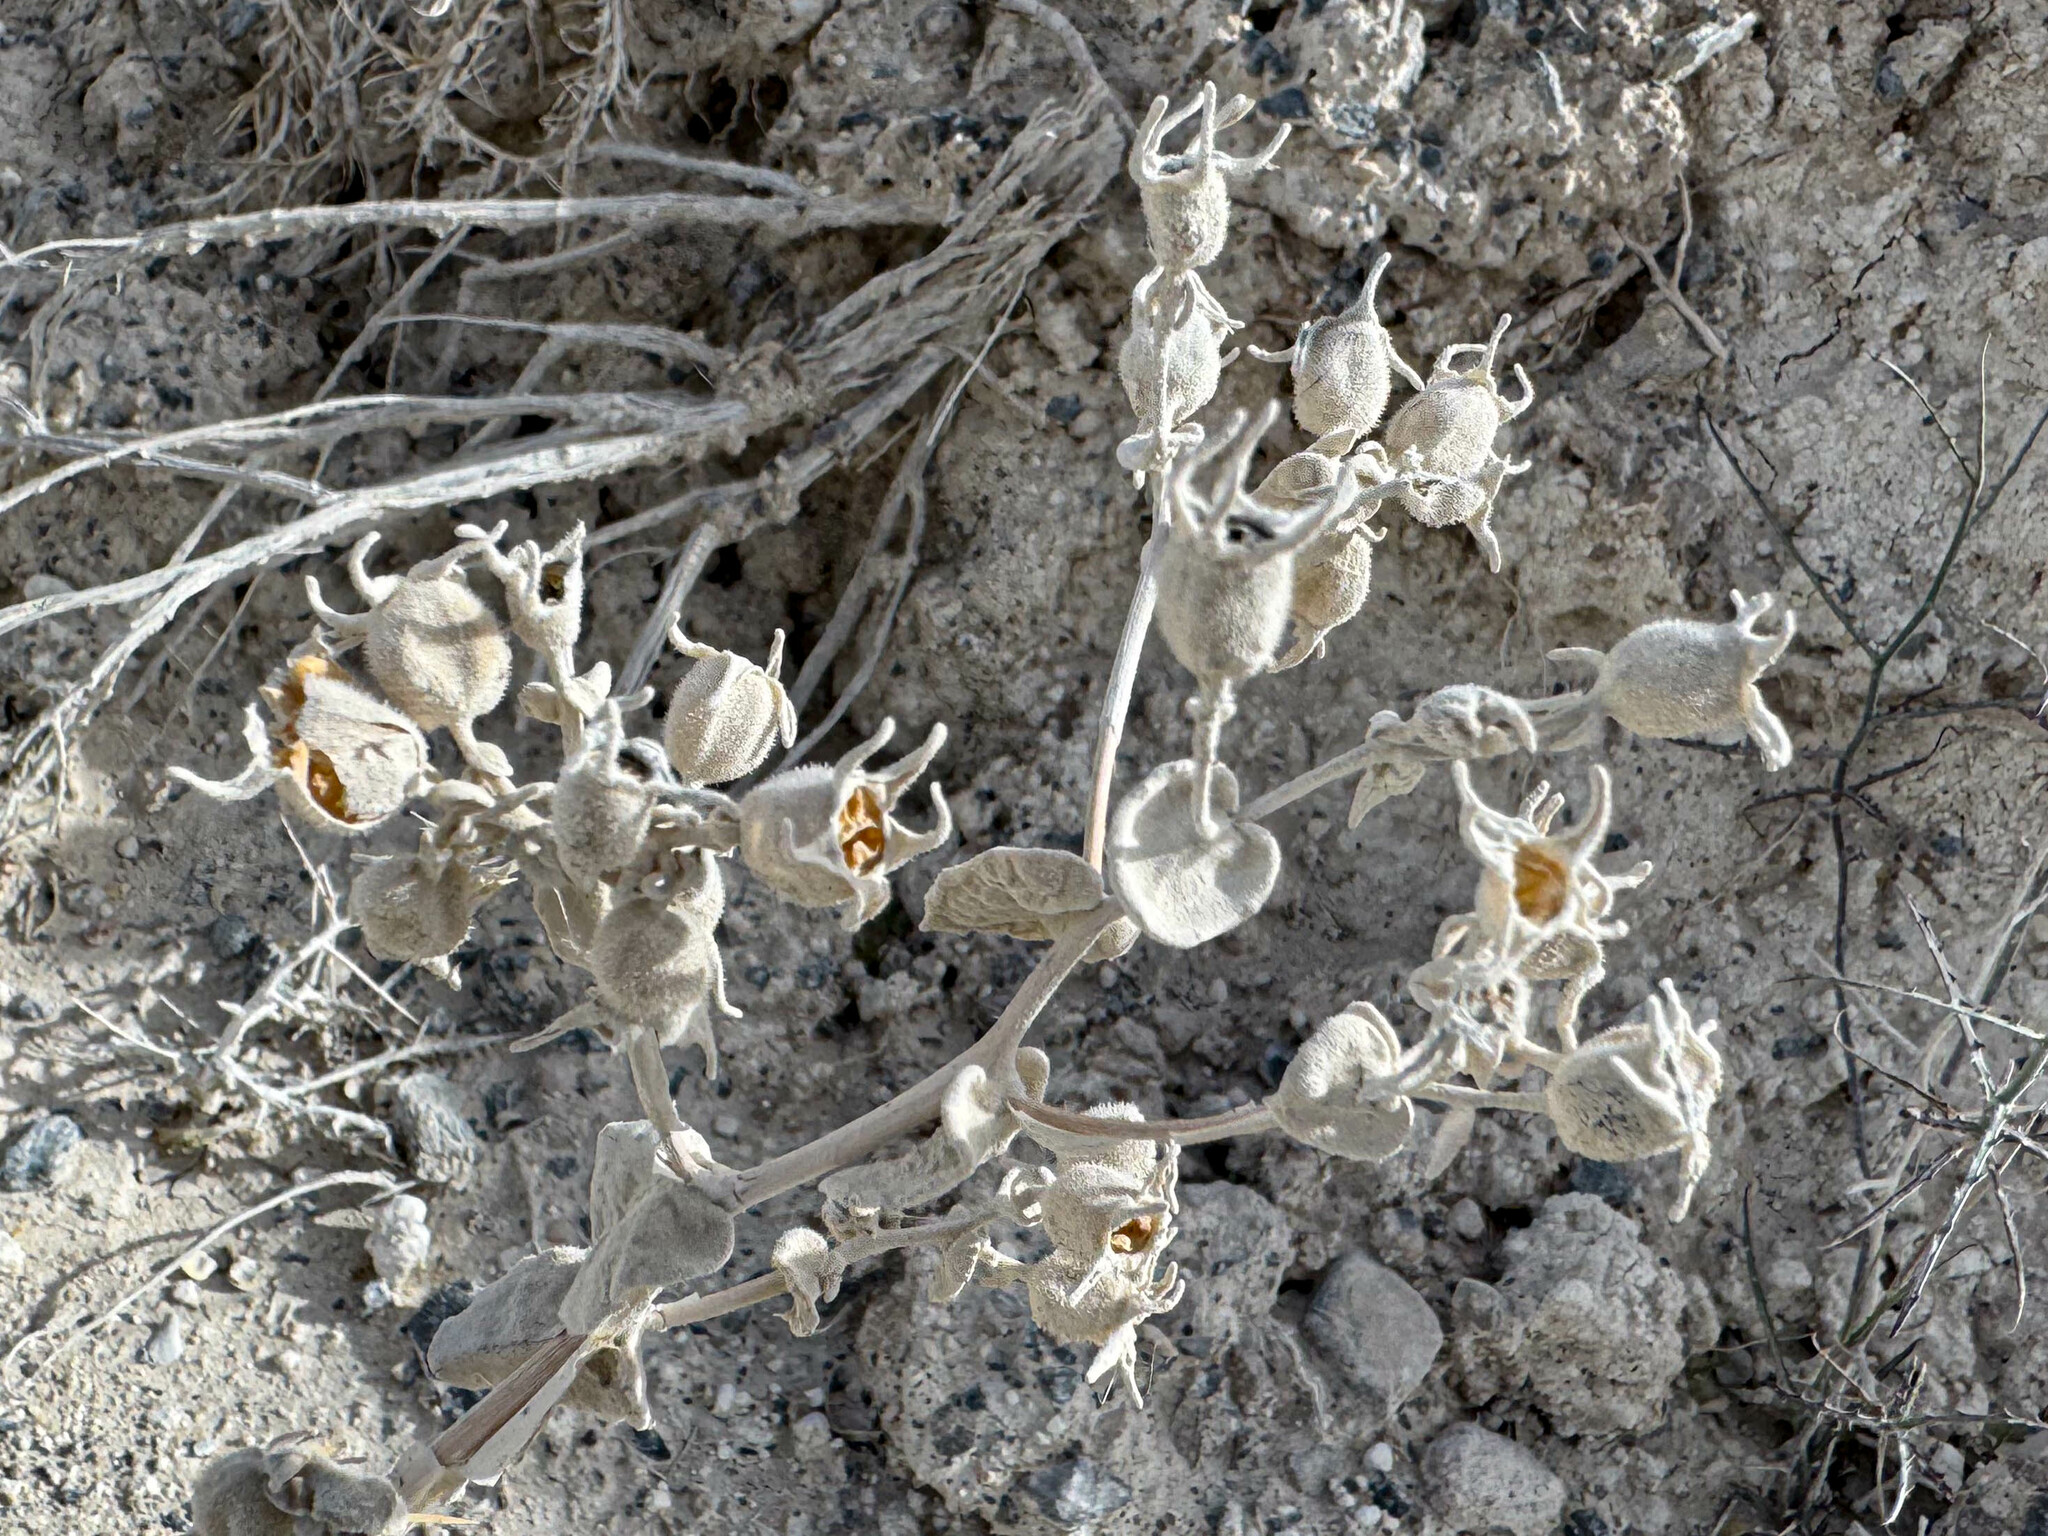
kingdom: Plantae
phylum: Tracheophyta
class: Magnoliopsida
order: Cornales
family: Loasaceae
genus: Mentzelia
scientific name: Mentzelia leucophylla
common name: Ash meadows blazingstar
